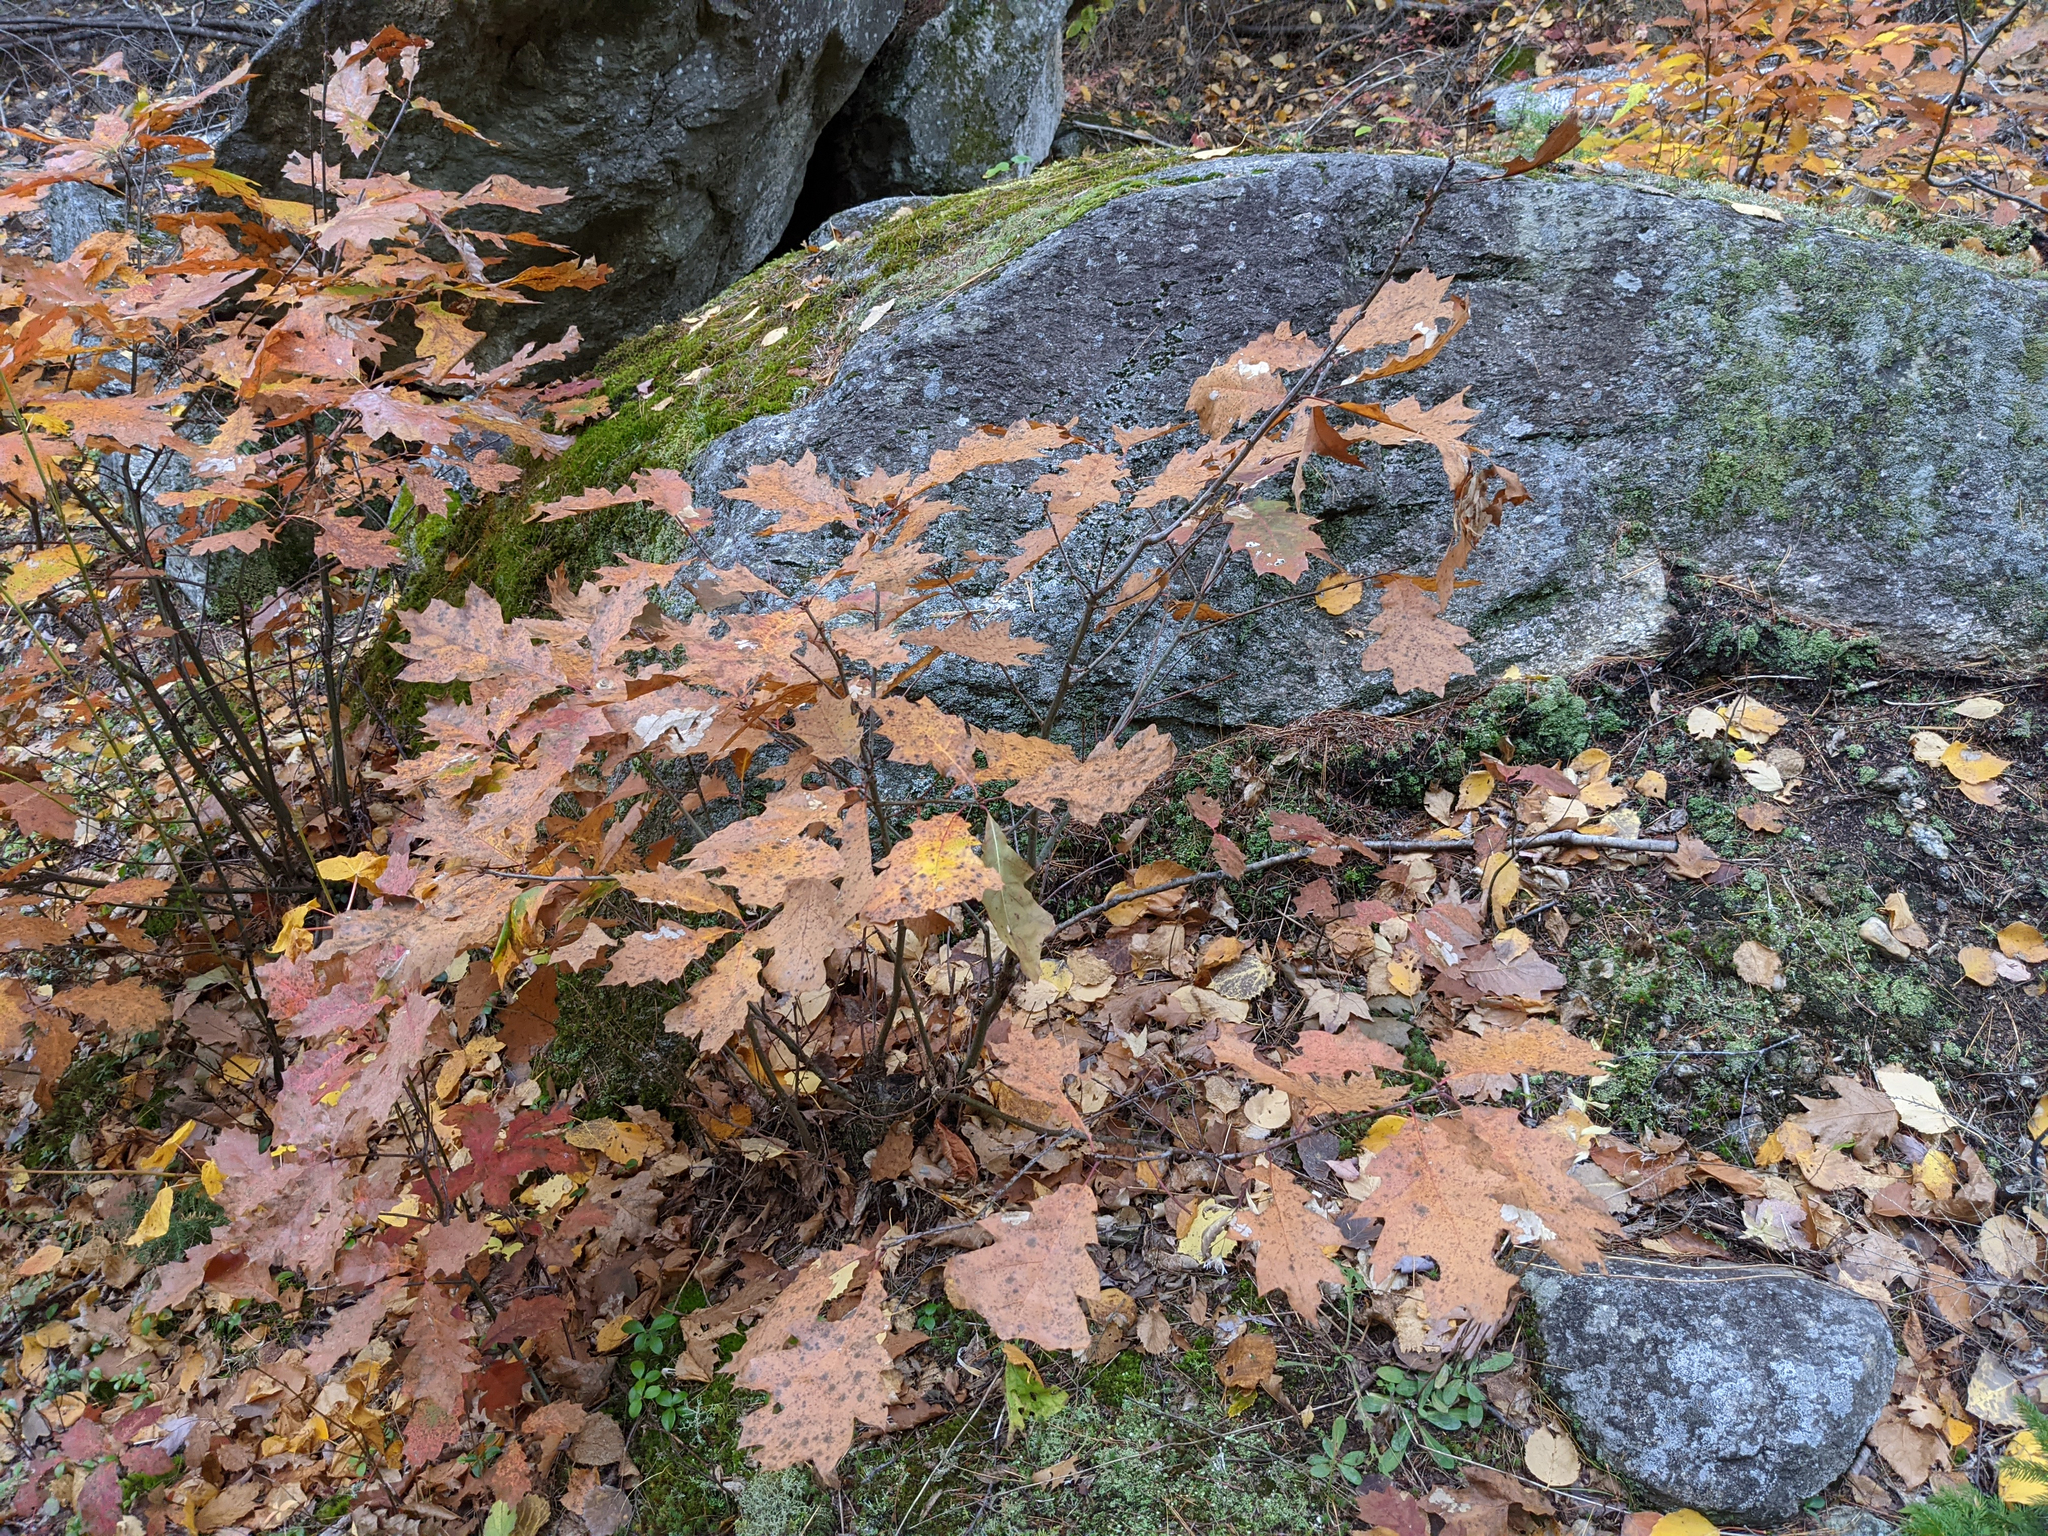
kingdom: Plantae
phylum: Tracheophyta
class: Magnoliopsida
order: Fagales
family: Fagaceae
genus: Quercus
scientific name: Quercus rubra
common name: Red oak
